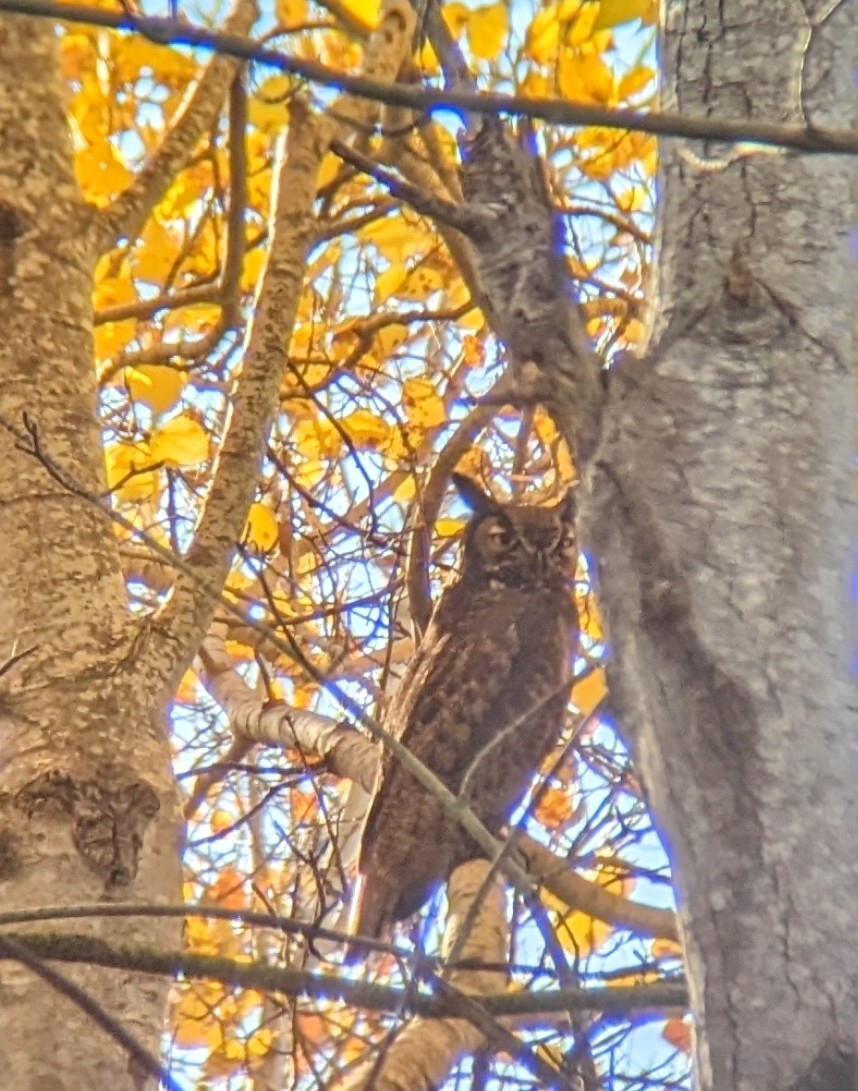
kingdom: Animalia
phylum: Chordata
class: Aves
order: Strigiformes
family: Strigidae
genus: Bubo
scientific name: Bubo virginianus
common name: Great horned owl
